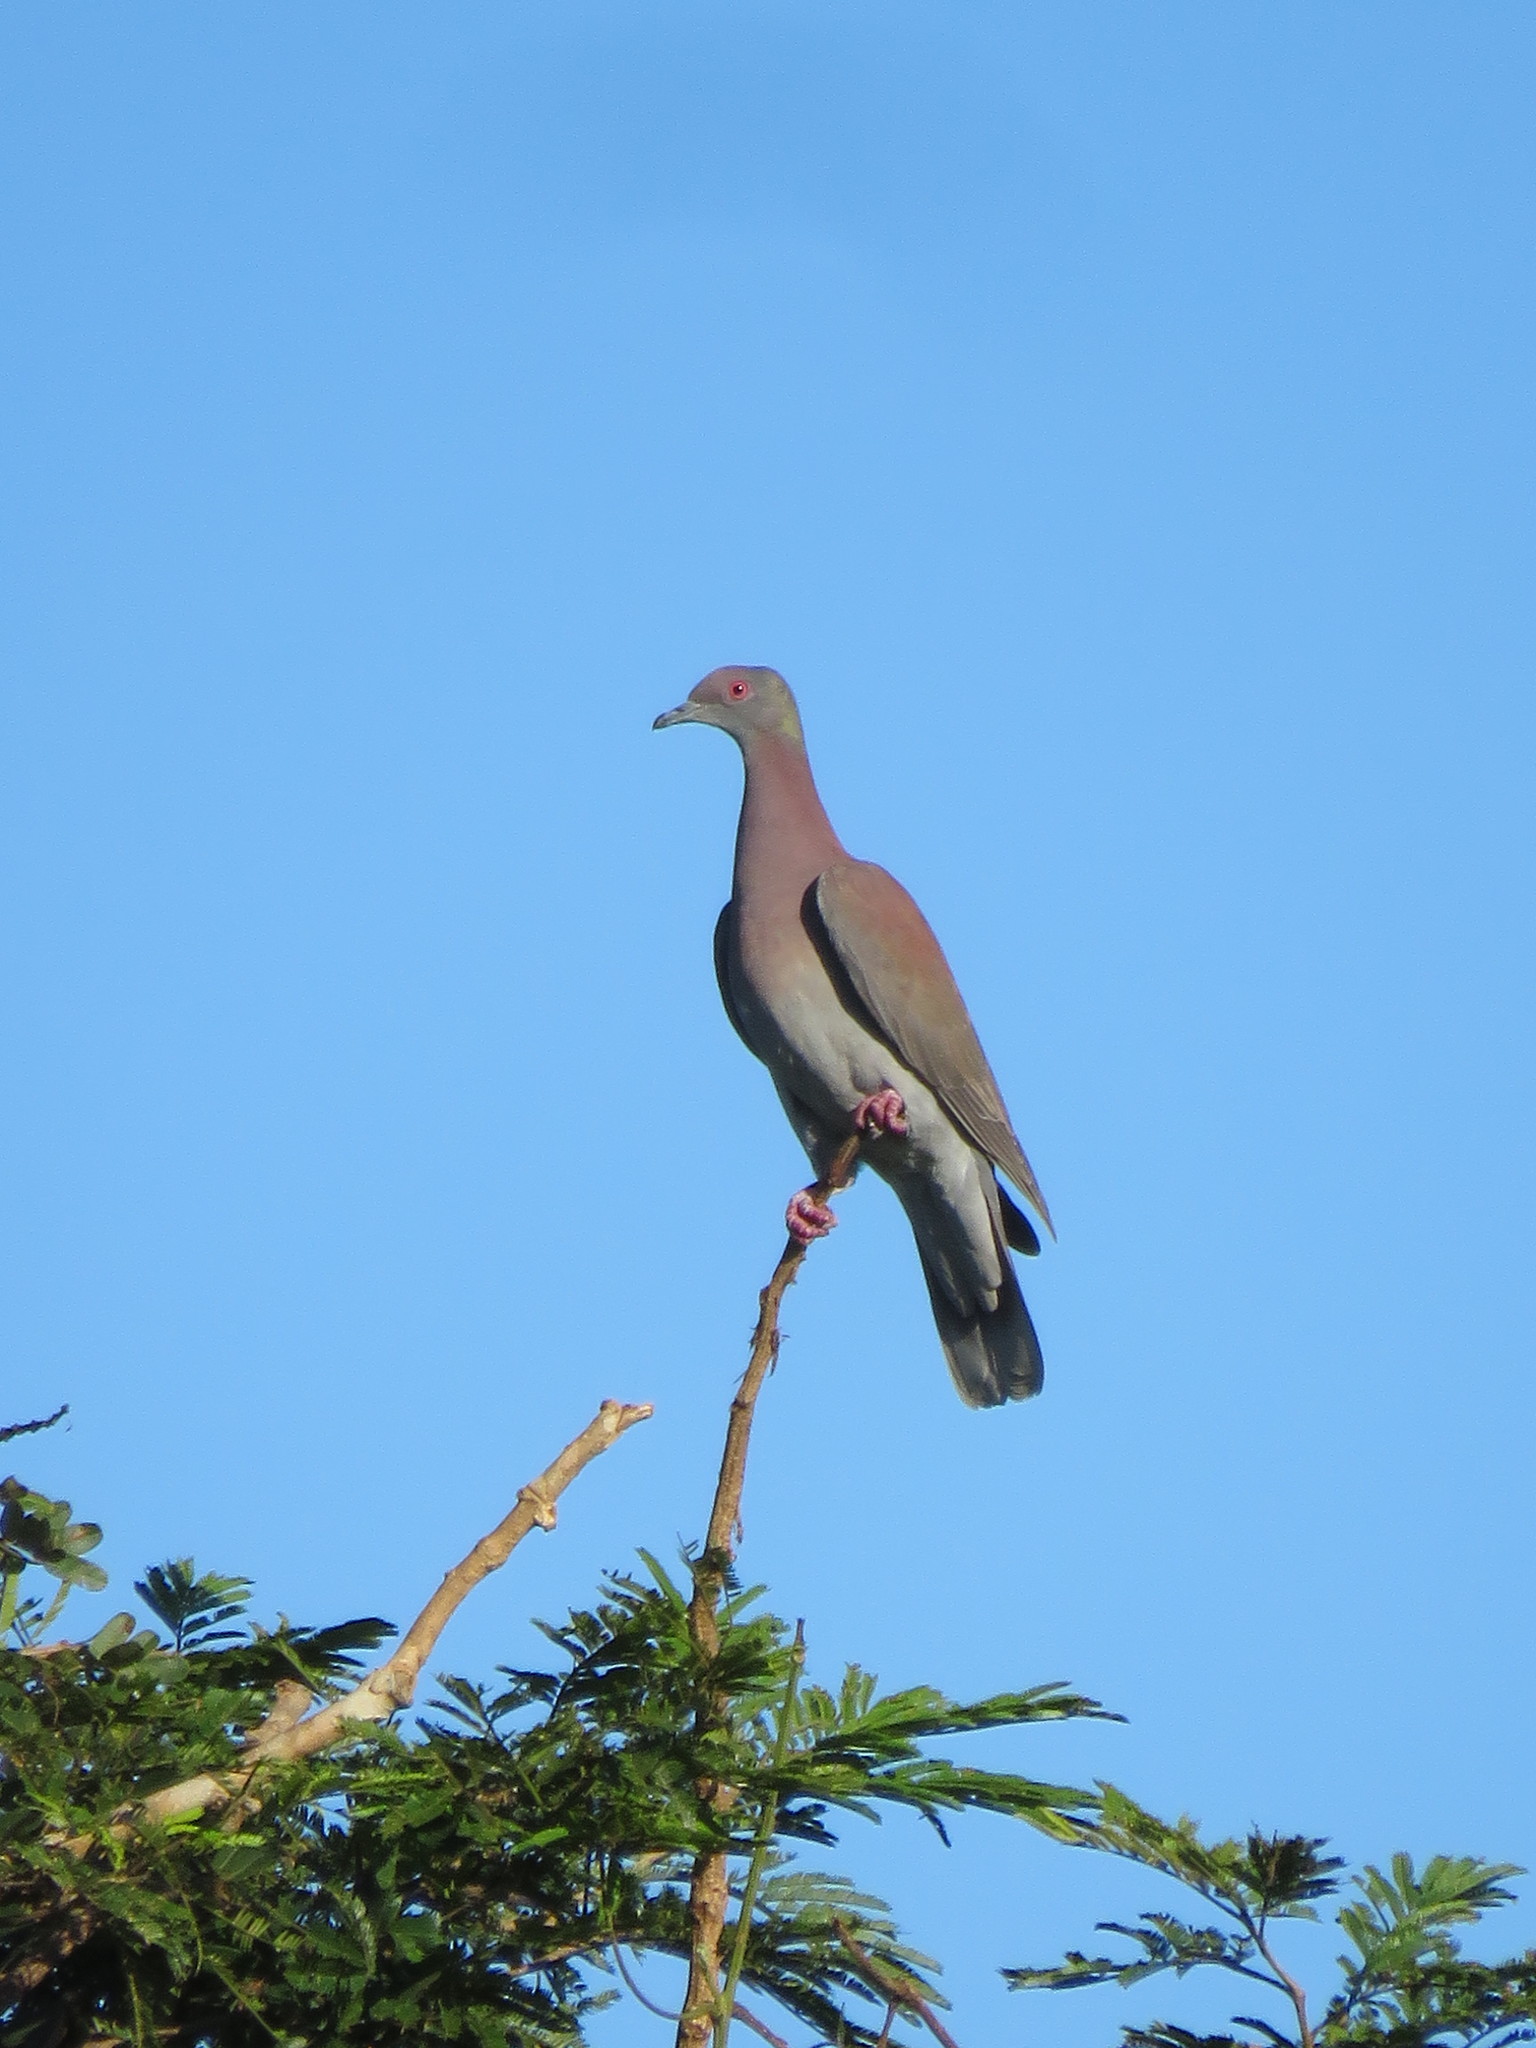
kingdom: Animalia
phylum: Chordata
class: Aves
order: Columbiformes
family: Columbidae
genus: Patagioenas
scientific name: Patagioenas cayennensis
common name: Pale-vented pigeon
